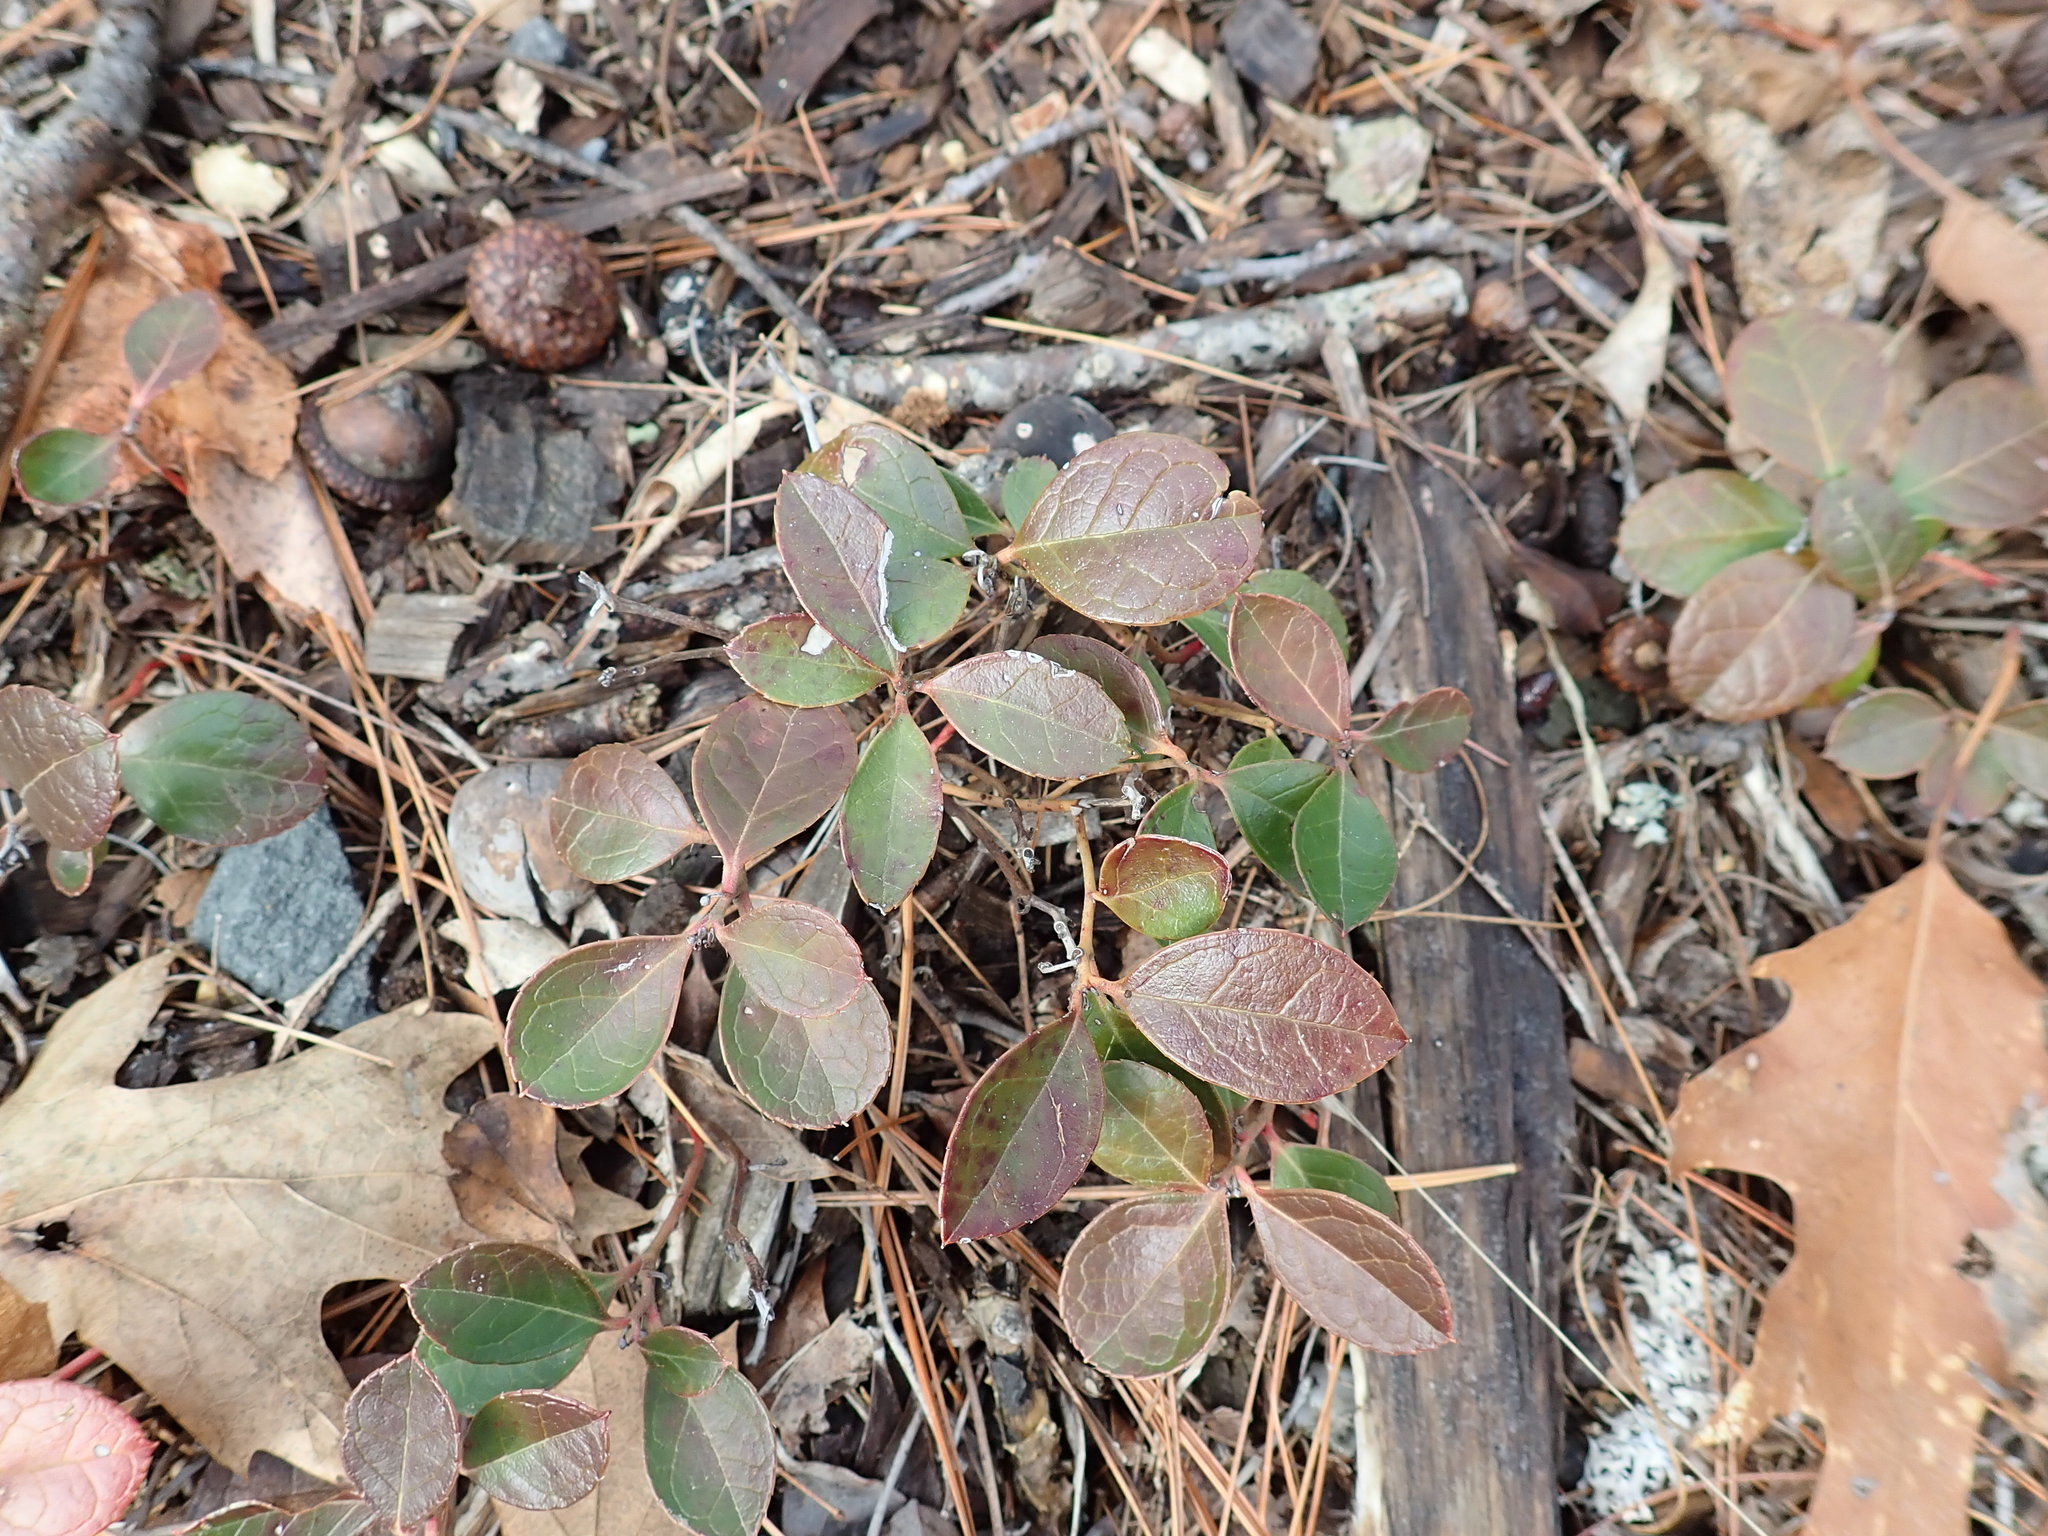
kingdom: Plantae
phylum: Tracheophyta
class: Magnoliopsida
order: Ericales
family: Ericaceae
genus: Gaultheria
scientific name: Gaultheria procumbens
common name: Checkerberry
